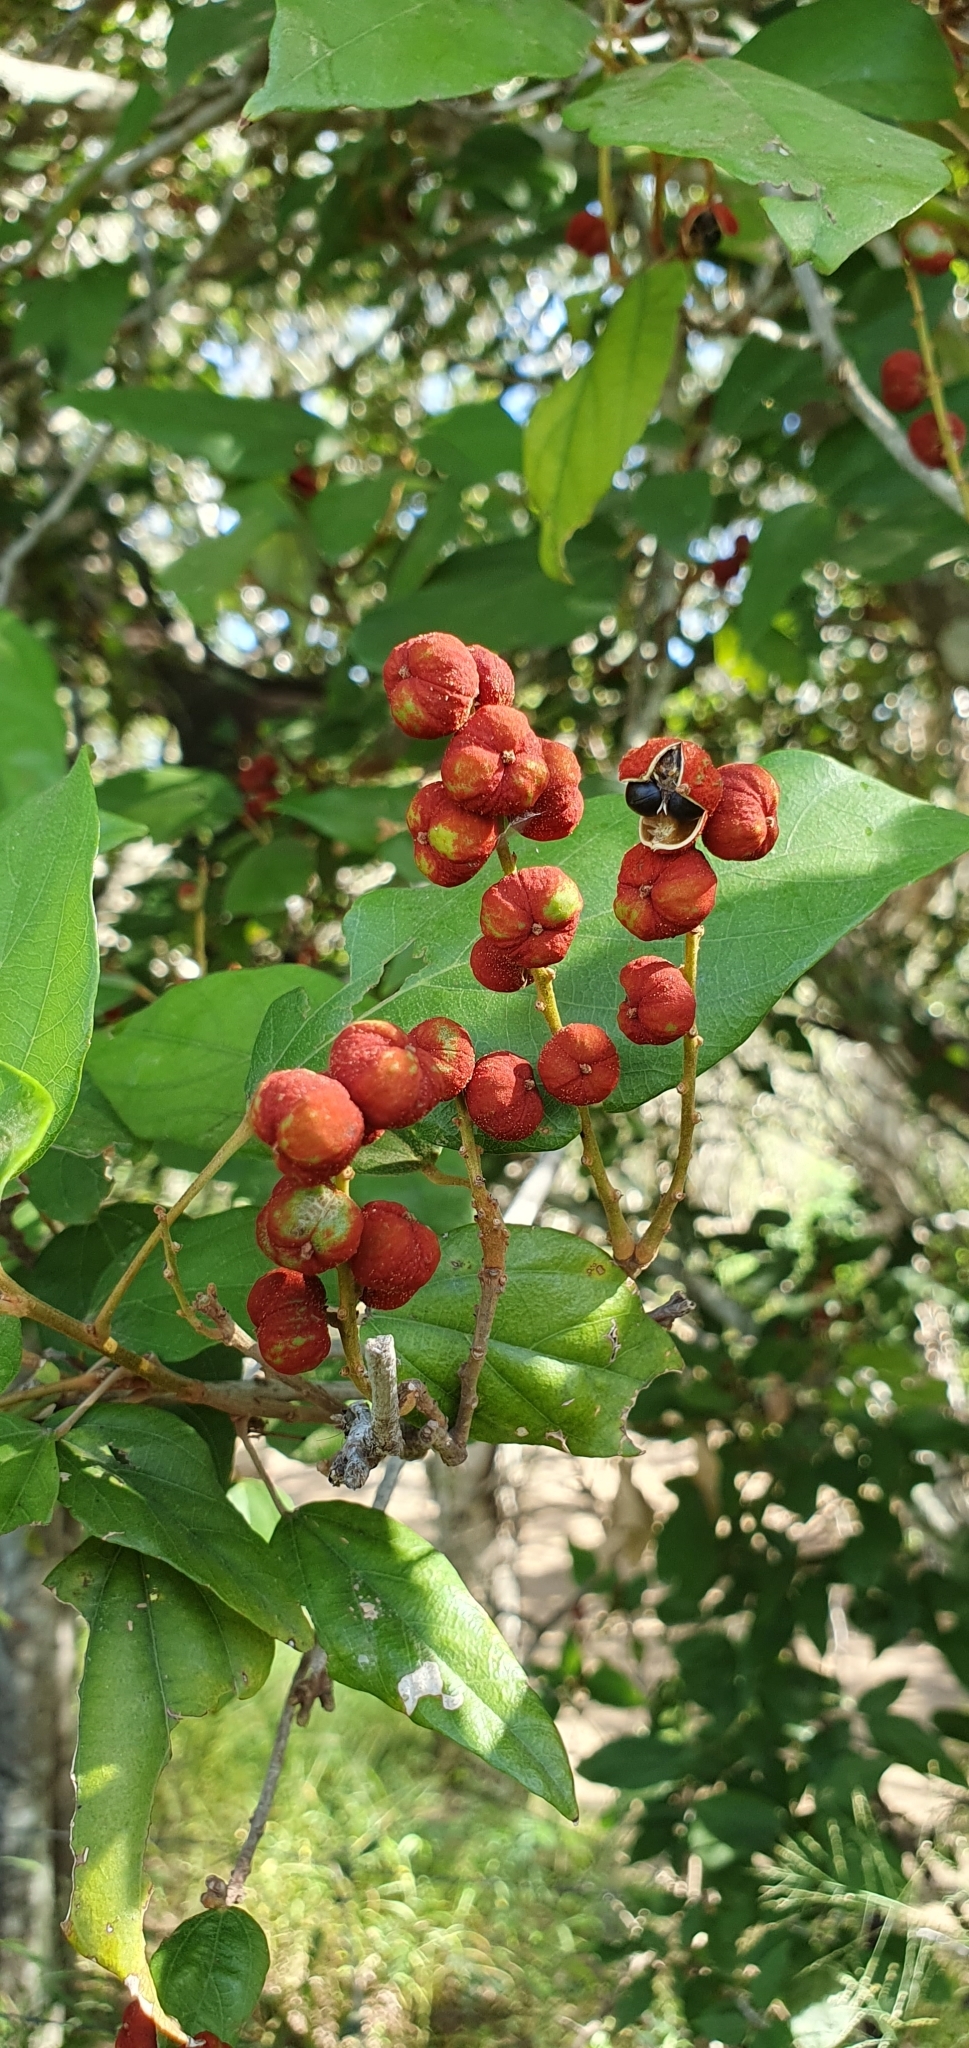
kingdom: Plantae
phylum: Tracheophyta
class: Magnoliopsida
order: Malpighiales
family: Euphorbiaceae
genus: Mallotus
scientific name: Mallotus philippensis
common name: Kamala tree
